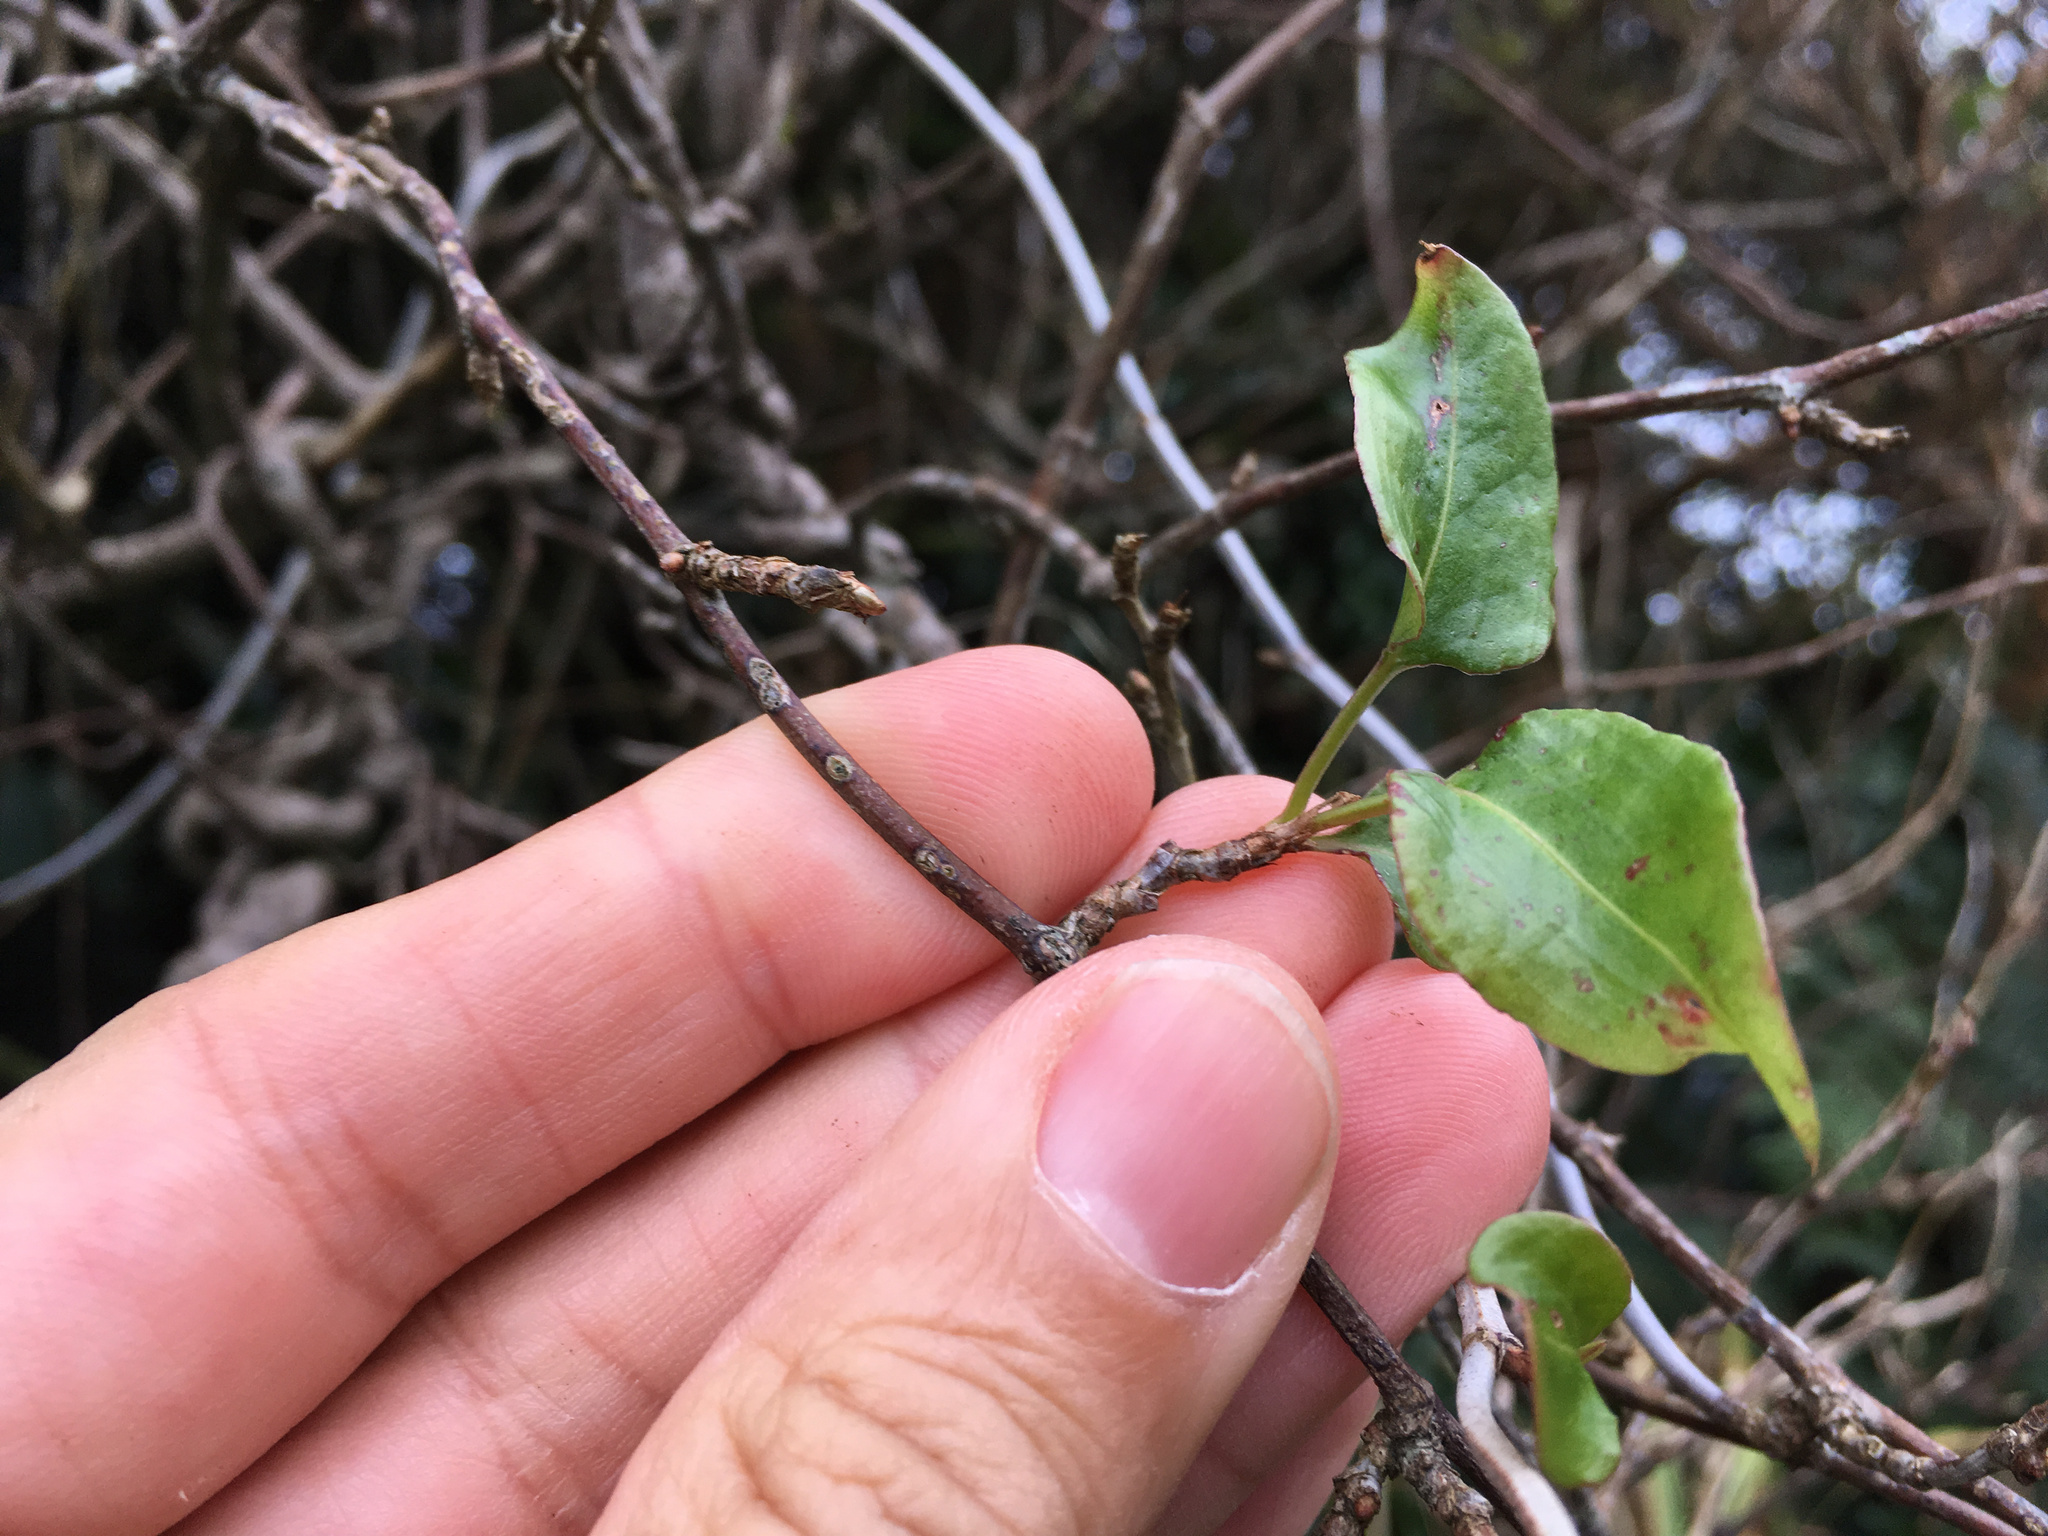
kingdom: Plantae
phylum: Tracheophyta
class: Magnoliopsida
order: Caryophyllales
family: Polygonaceae
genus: Muehlenbeckia
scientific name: Muehlenbeckia australis
